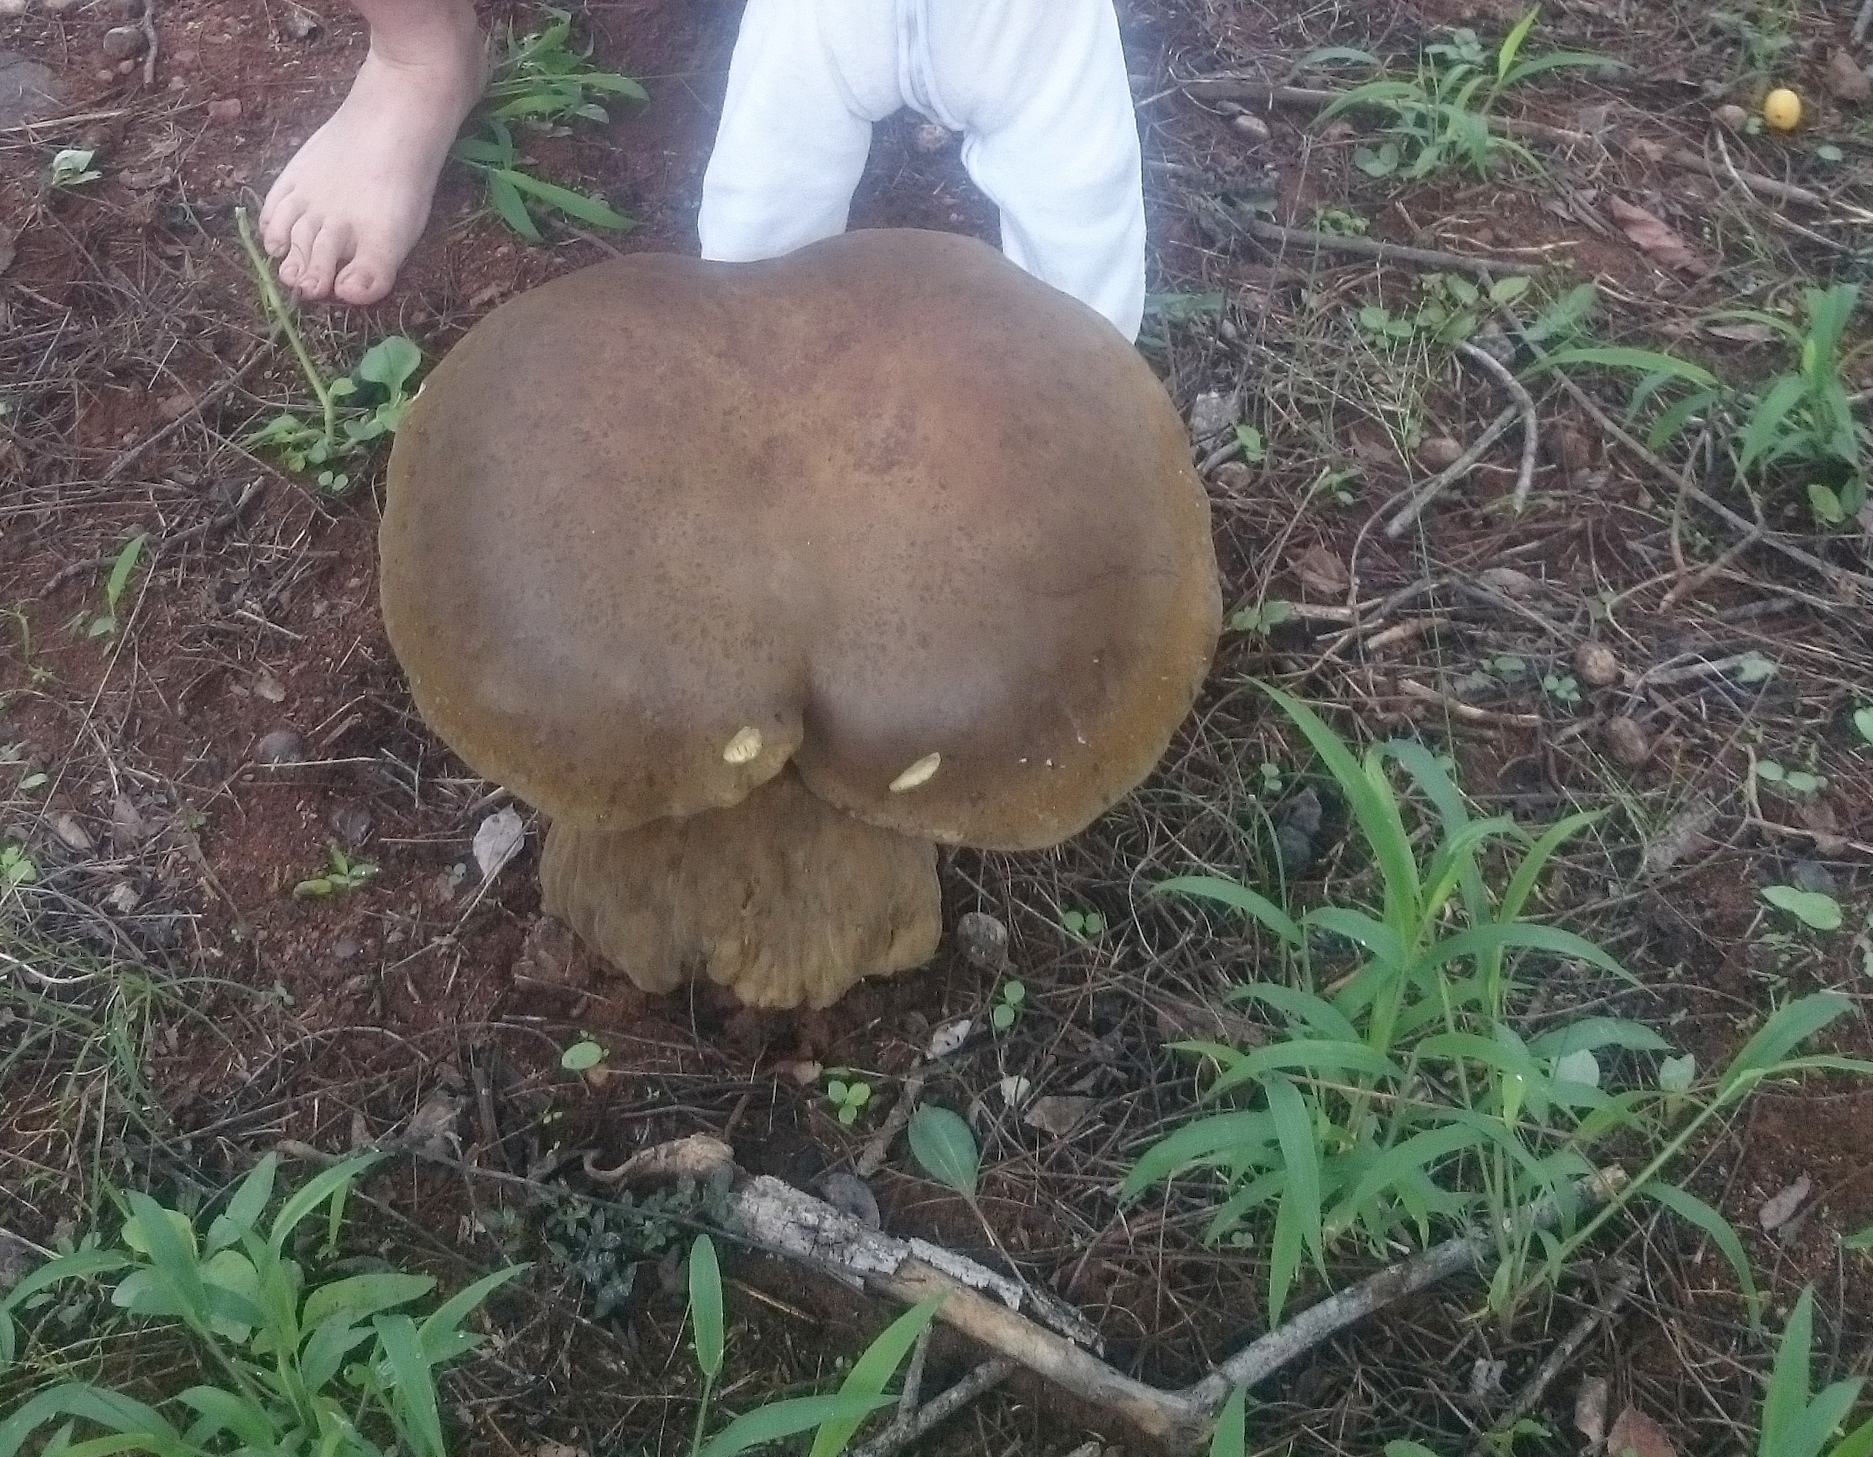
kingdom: Fungi
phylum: Basidiomycota
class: Agaricomycetes
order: Boletales
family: Boletinellaceae
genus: Phlebopus
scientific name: Phlebopus sudanicus
